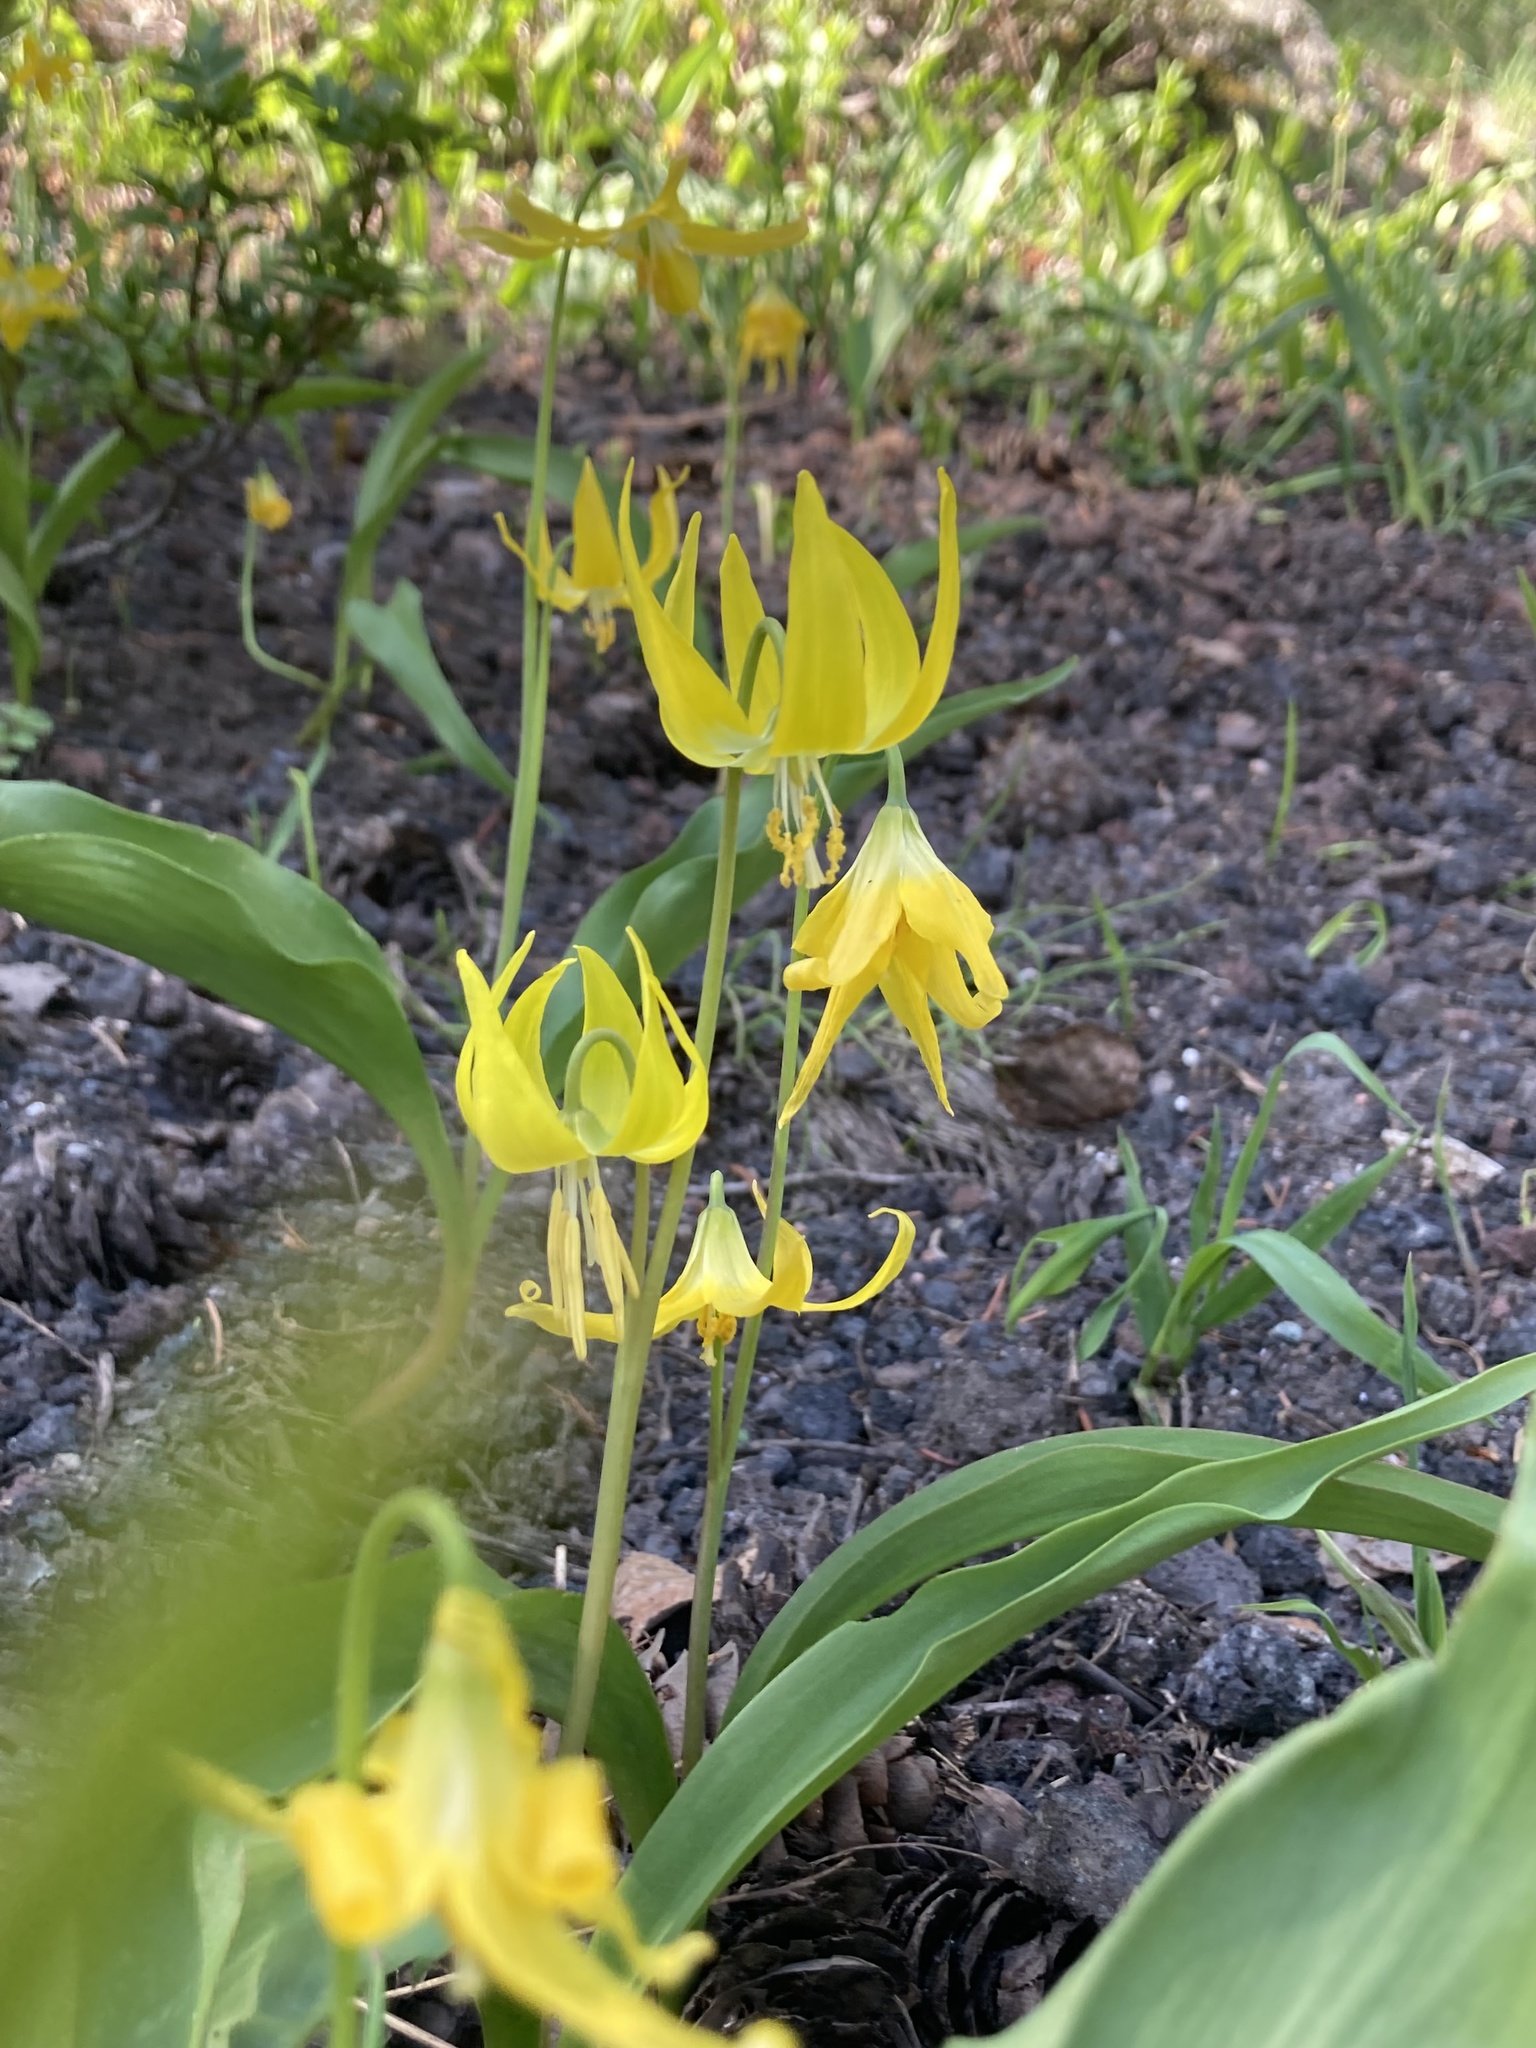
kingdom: Plantae
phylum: Tracheophyta
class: Liliopsida
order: Liliales
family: Liliaceae
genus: Erythronium
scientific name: Erythronium grandiflorum
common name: Avalanche-lily
